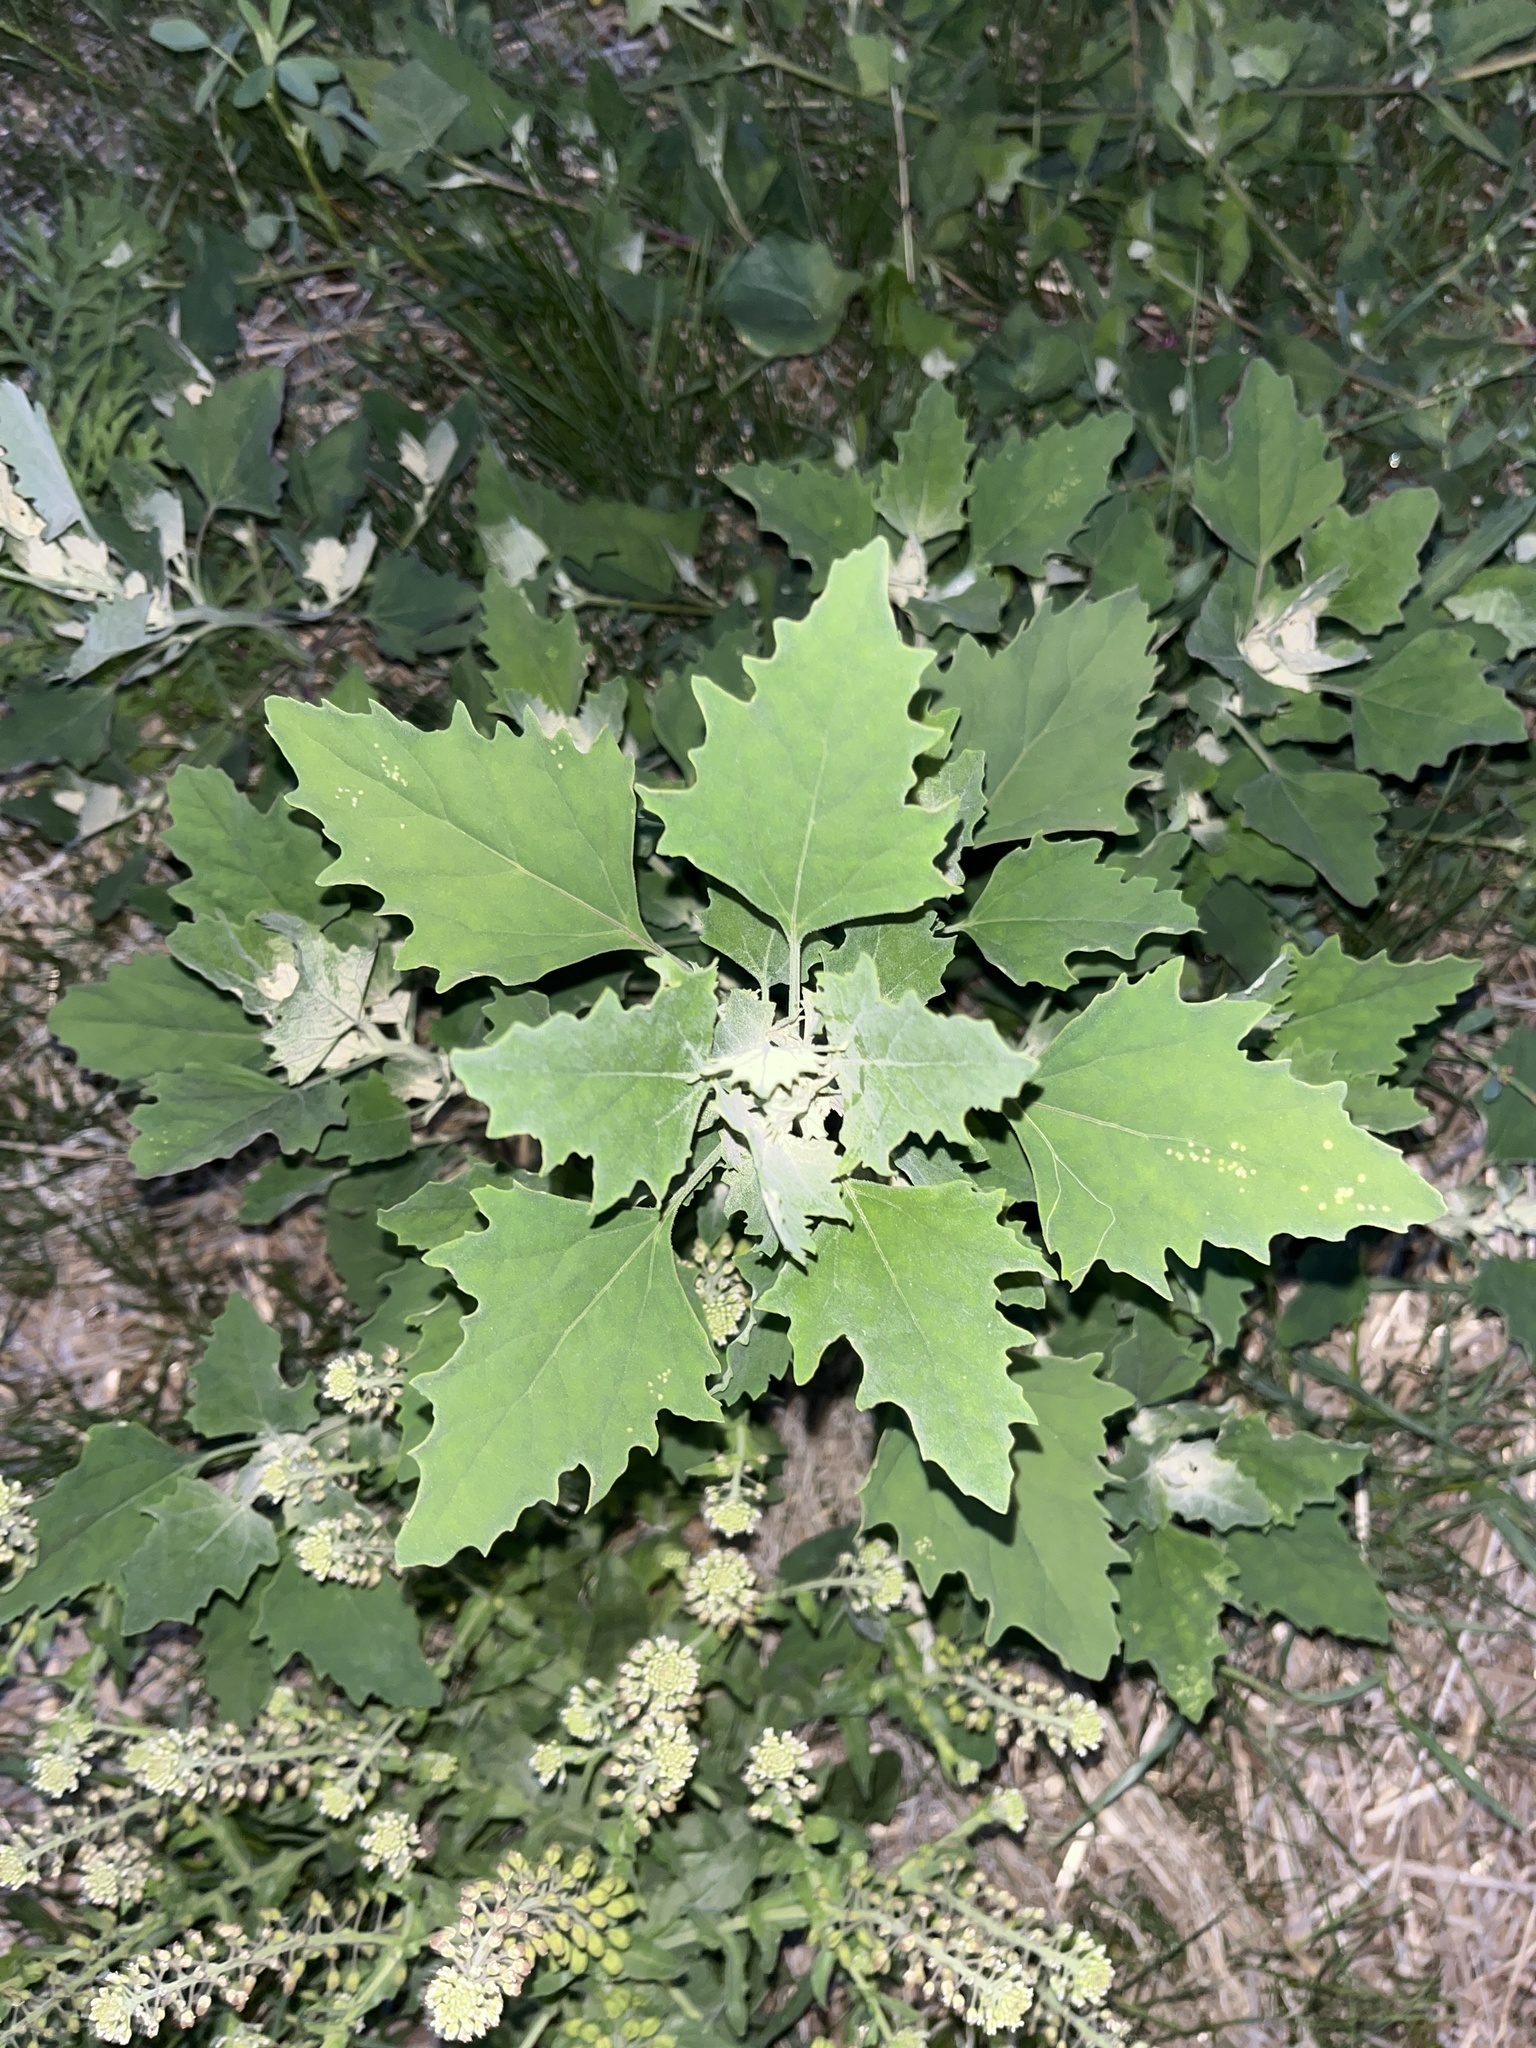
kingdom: Plantae
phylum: Tracheophyta
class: Magnoliopsida
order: Caryophyllales
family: Amaranthaceae
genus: Chenopodium
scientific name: Chenopodium album
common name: Fat-hen
